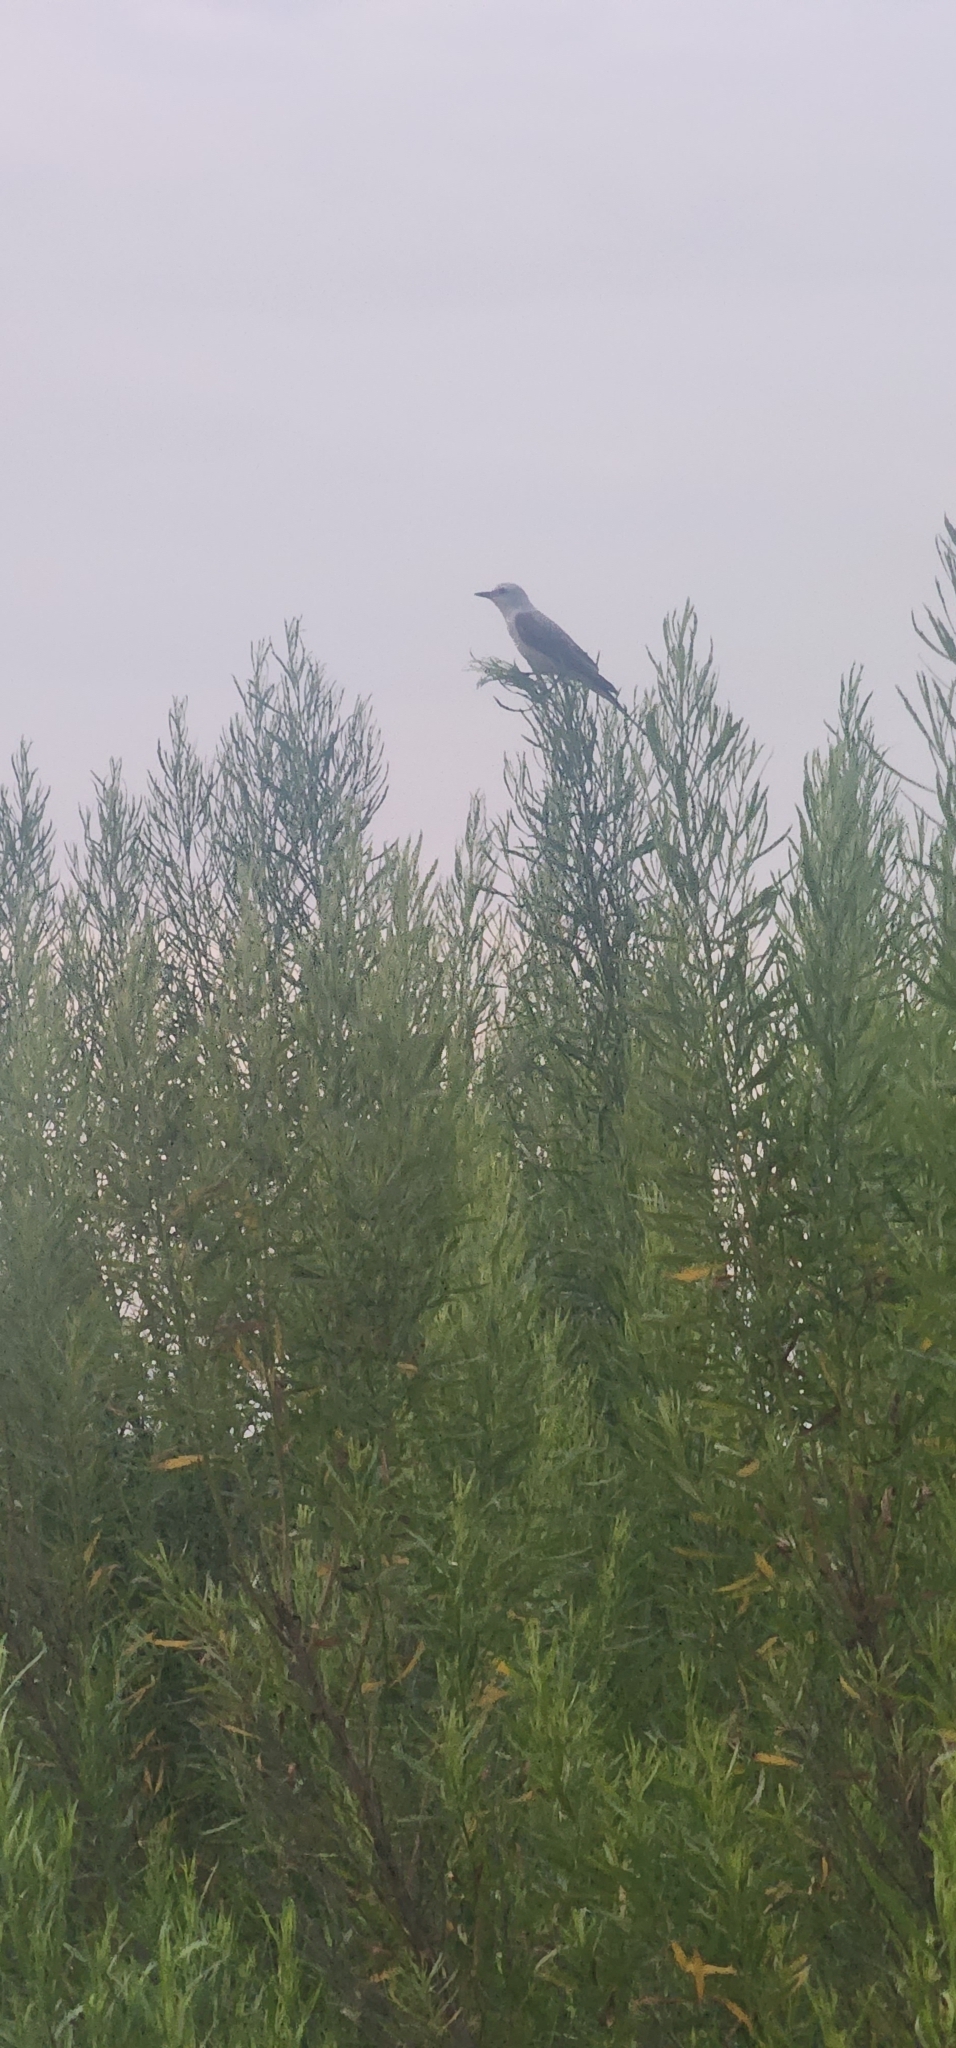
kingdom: Animalia
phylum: Chordata
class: Aves
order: Passeriformes
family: Tyrannidae
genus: Tyrannus
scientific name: Tyrannus forficatus
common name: Scissor-tailed flycatcher
